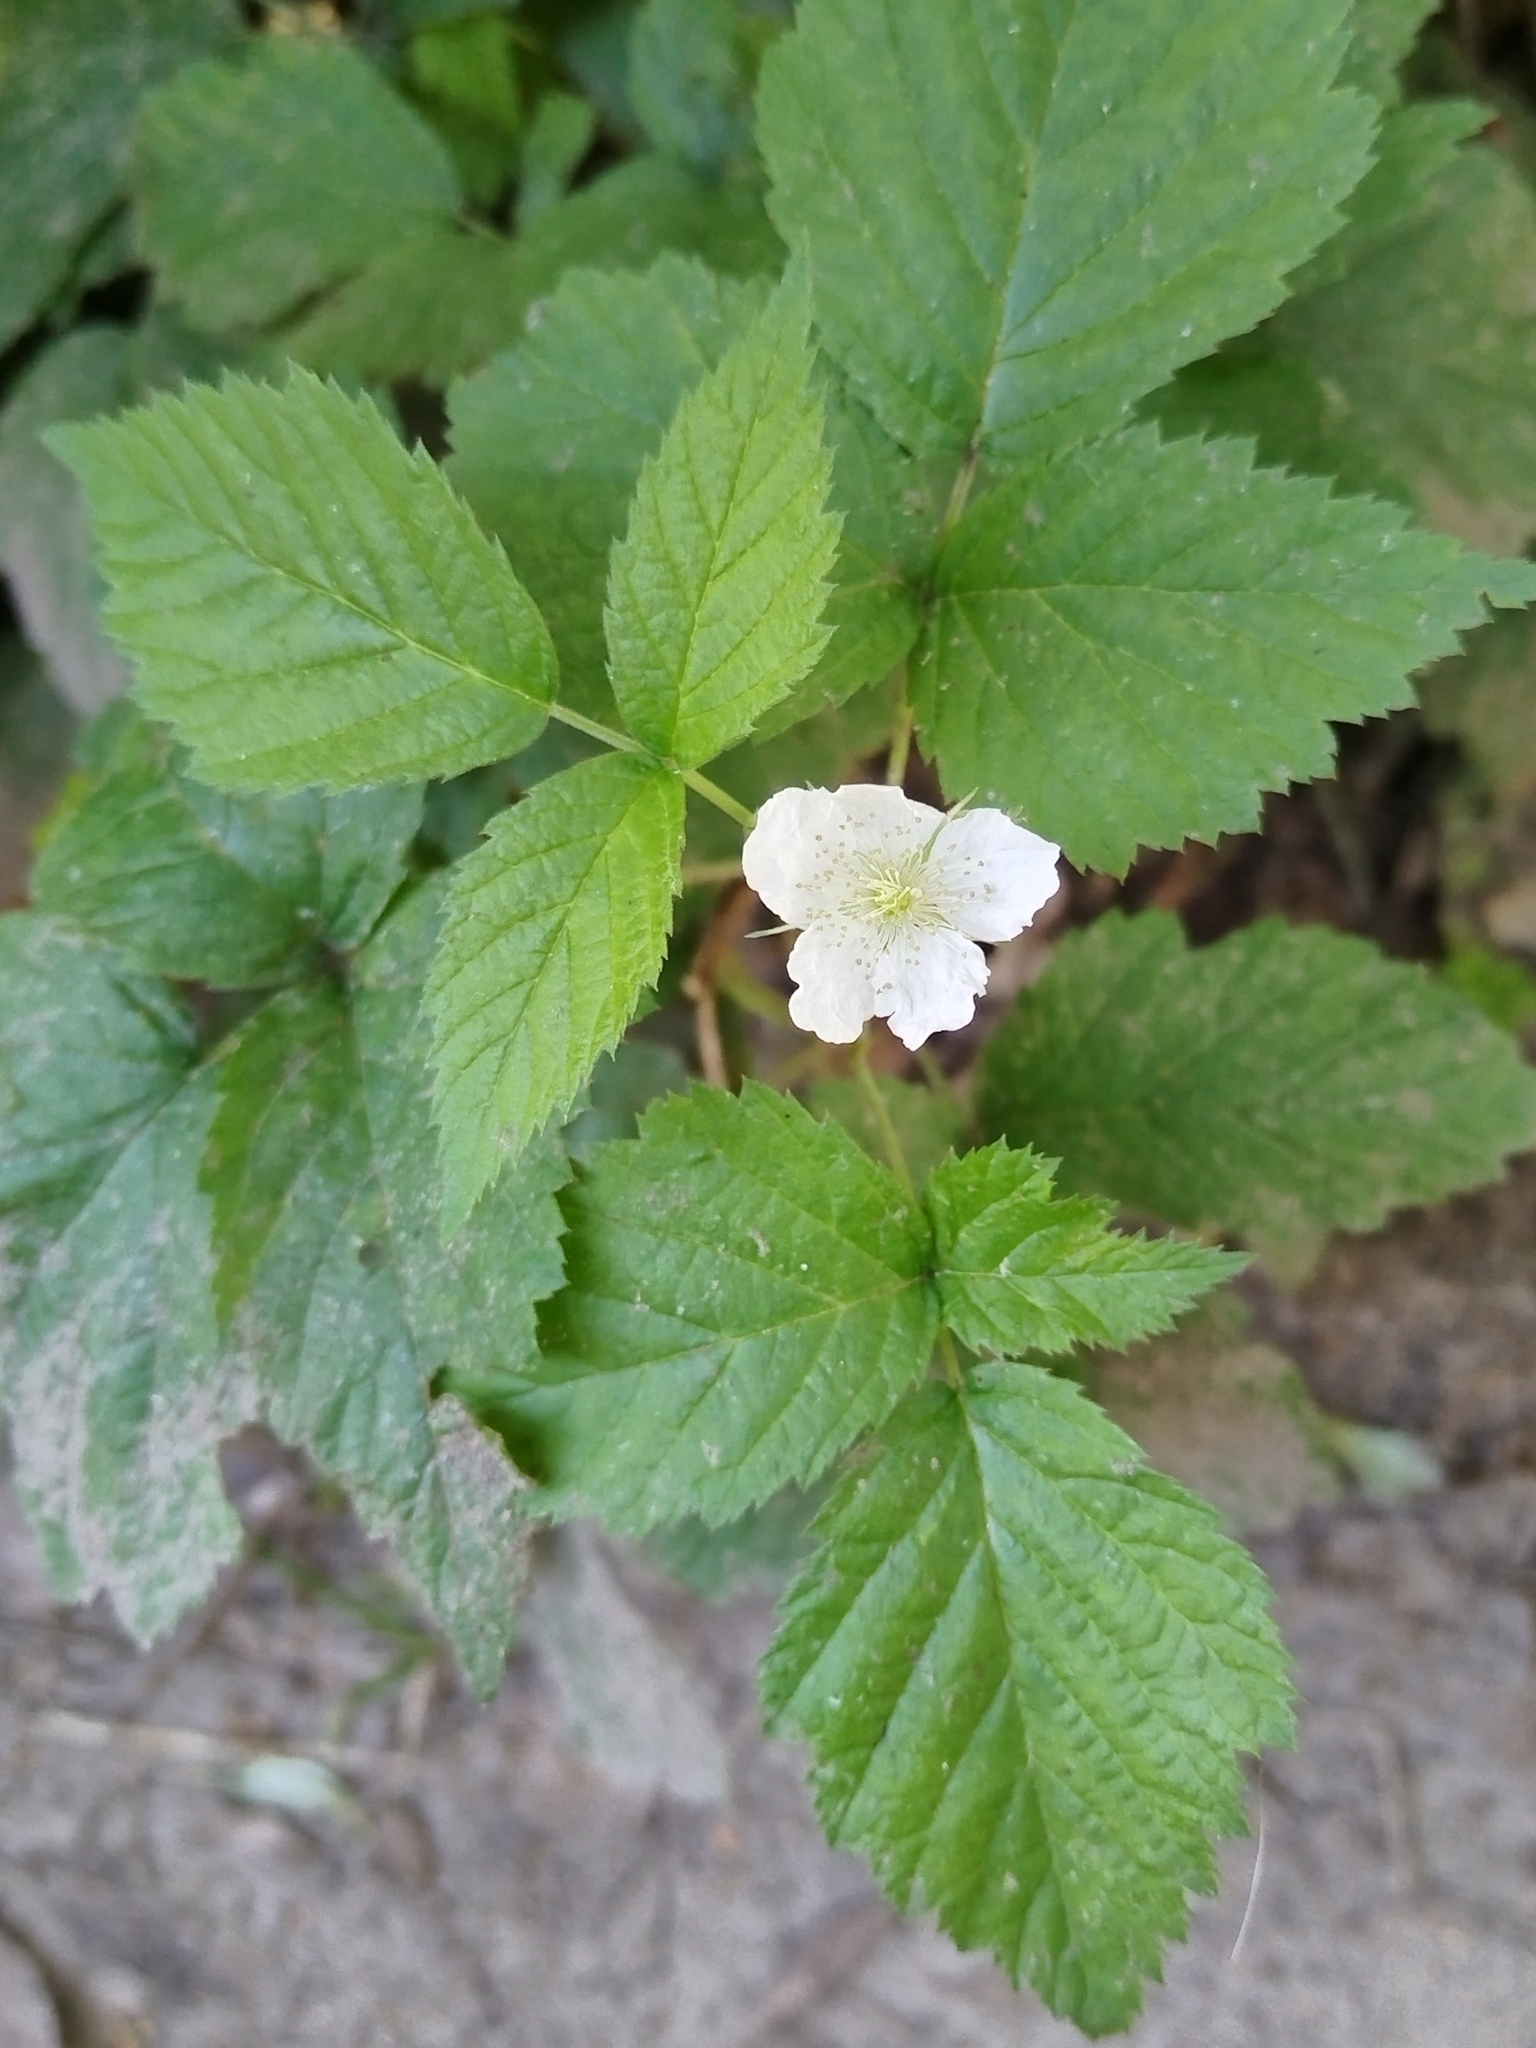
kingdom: Plantae
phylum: Tracheophyta
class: Magnoliopsida
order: Rosales
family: Rosaceae
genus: Rubus
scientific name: Rubus caesius
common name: Dewberry
